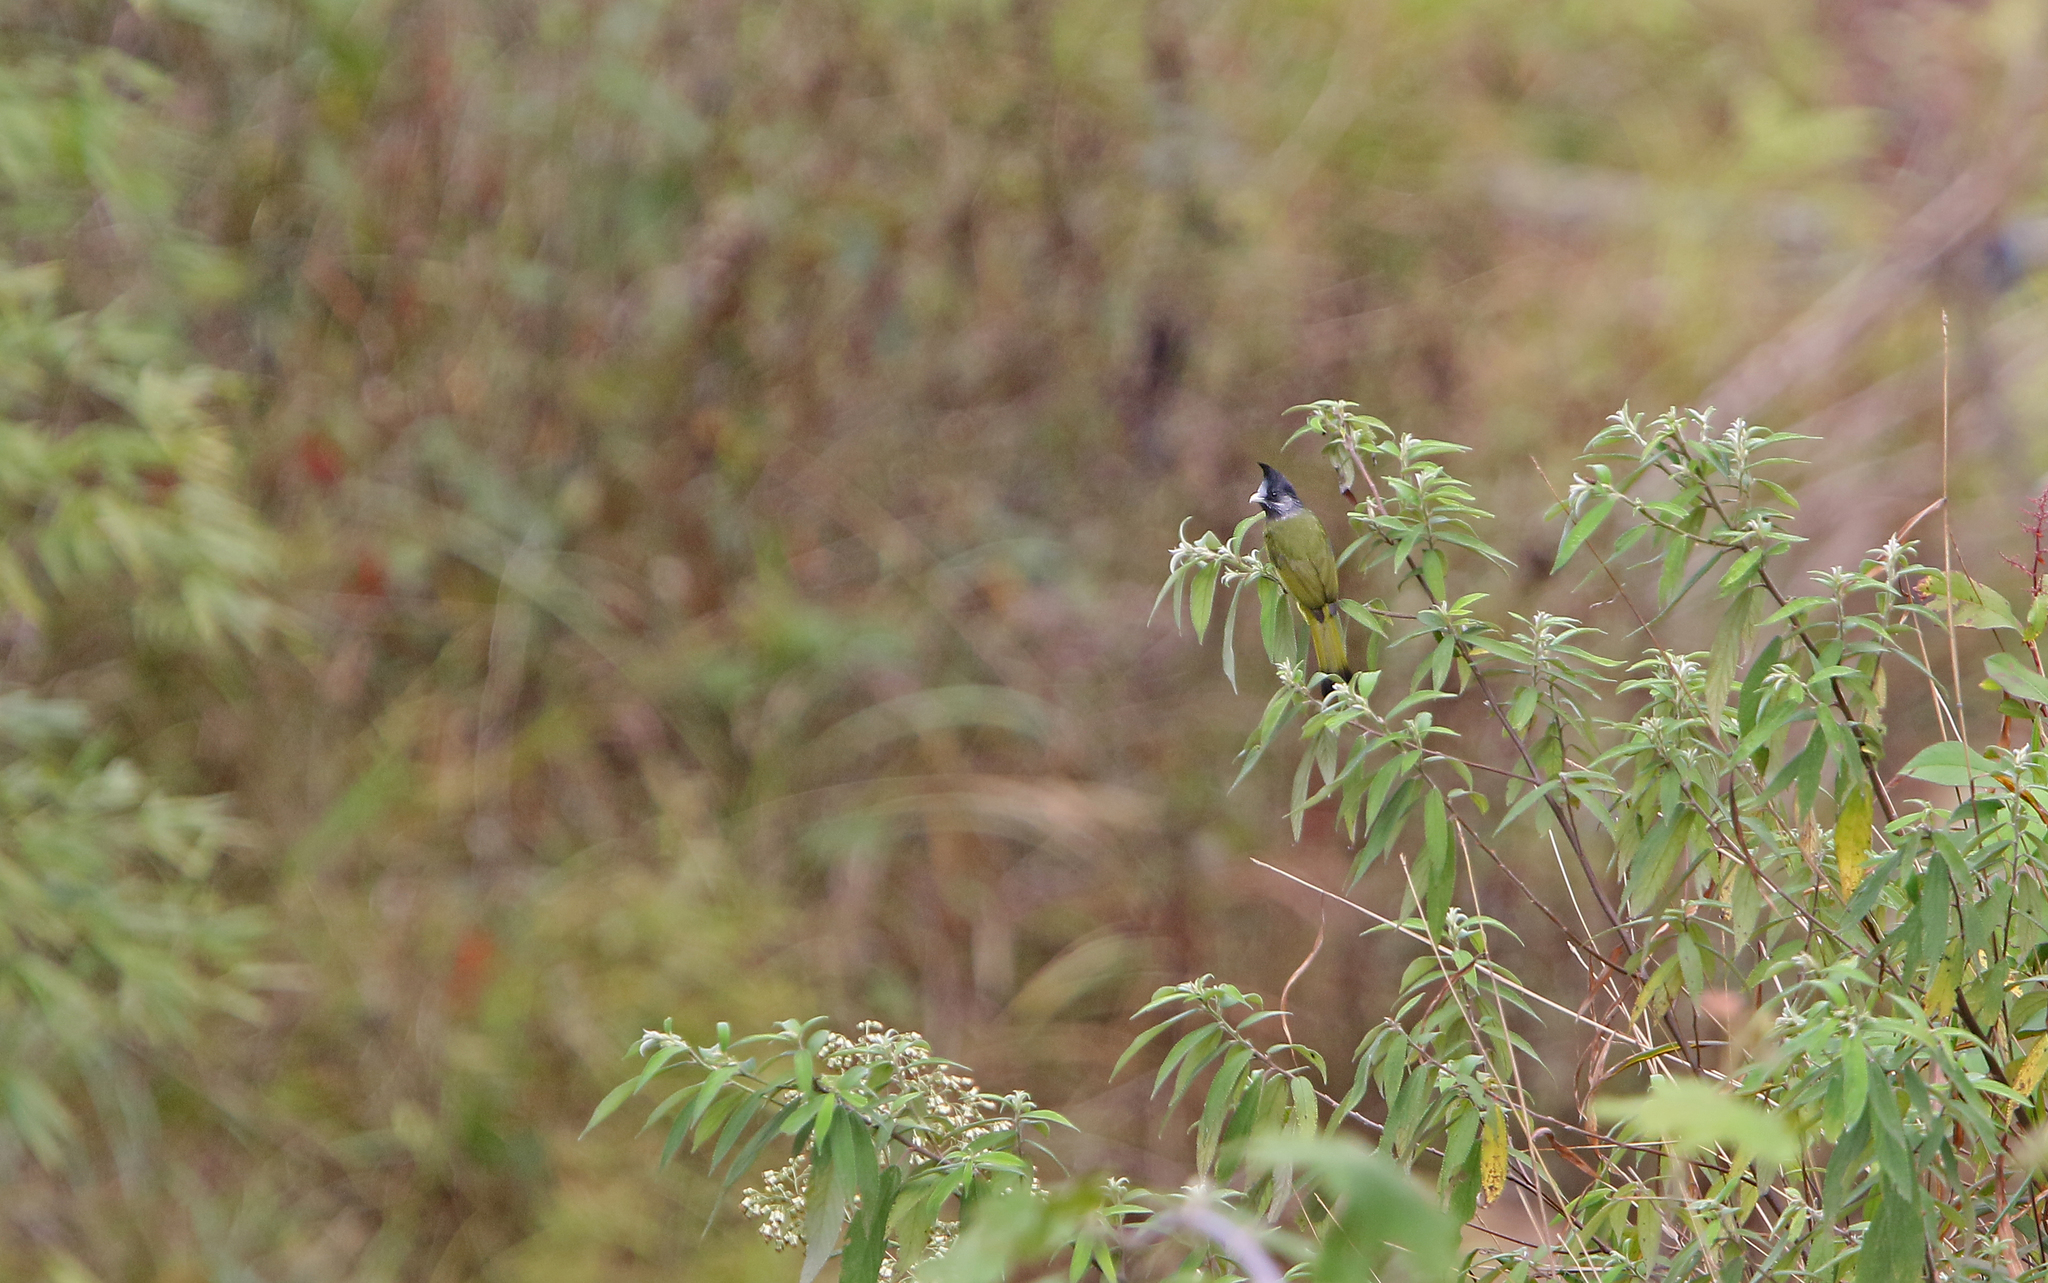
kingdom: Animalia
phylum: Chordata
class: Aves
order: Passeriformes
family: Pycnonotidae
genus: Spizixos
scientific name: Spizixos canifrons
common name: Crested finchbill
